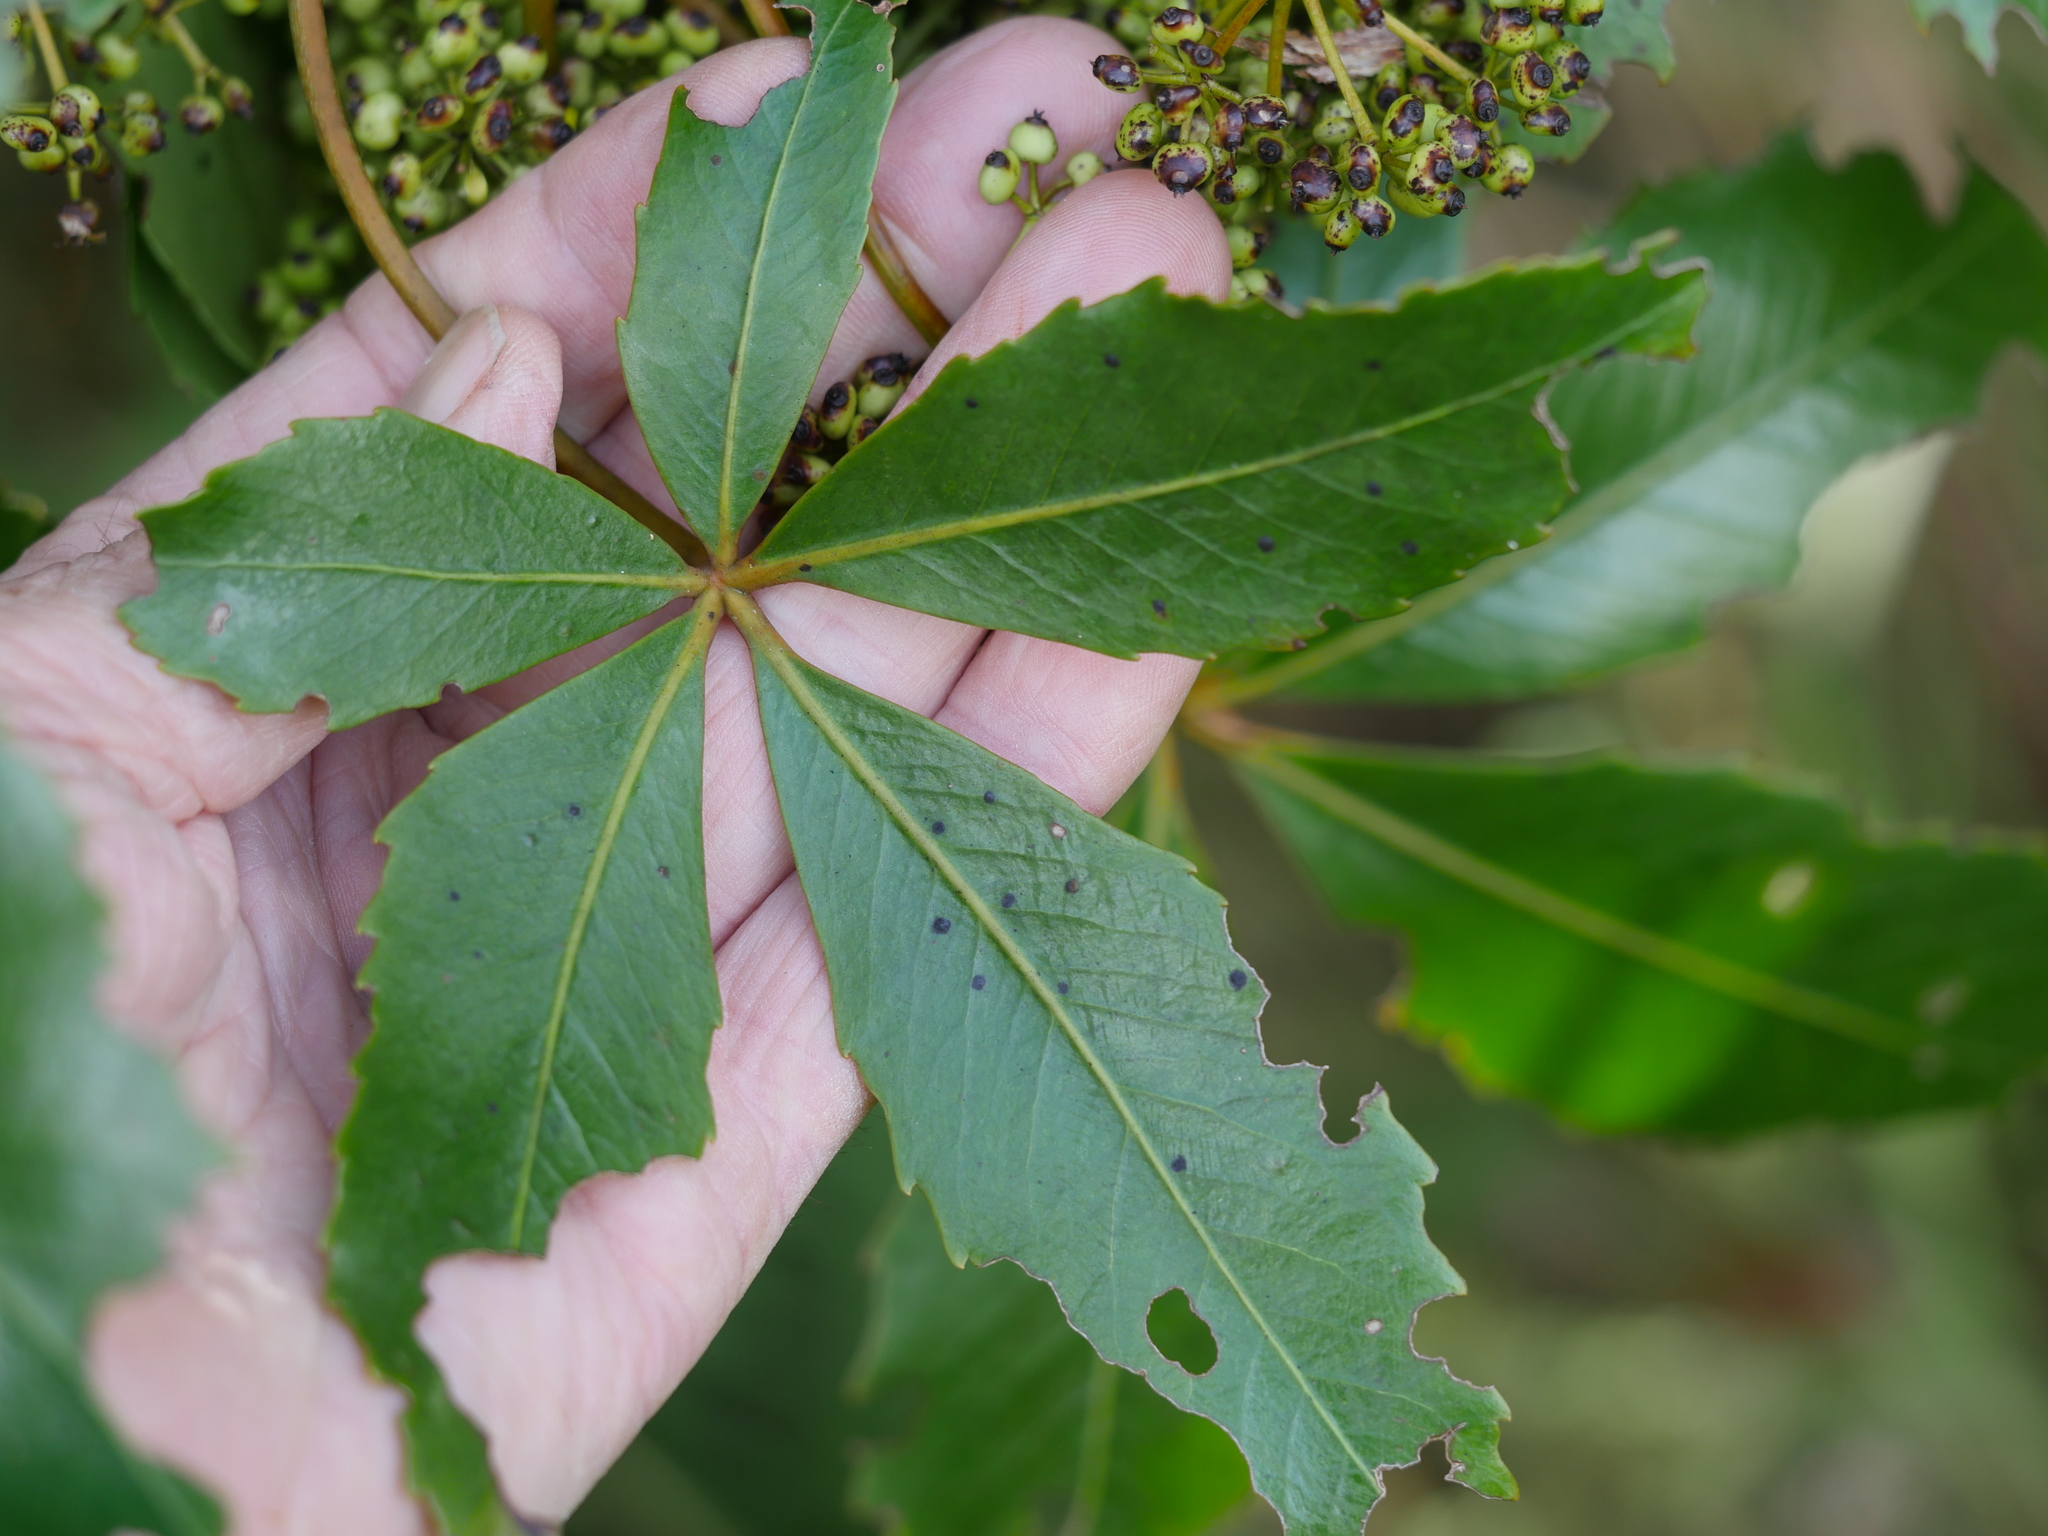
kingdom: Plantae
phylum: Tracheophyta
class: Magnoliopsida
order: Apiales
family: Araliaceae
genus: Neopanax
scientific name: Neopanax colensoi
